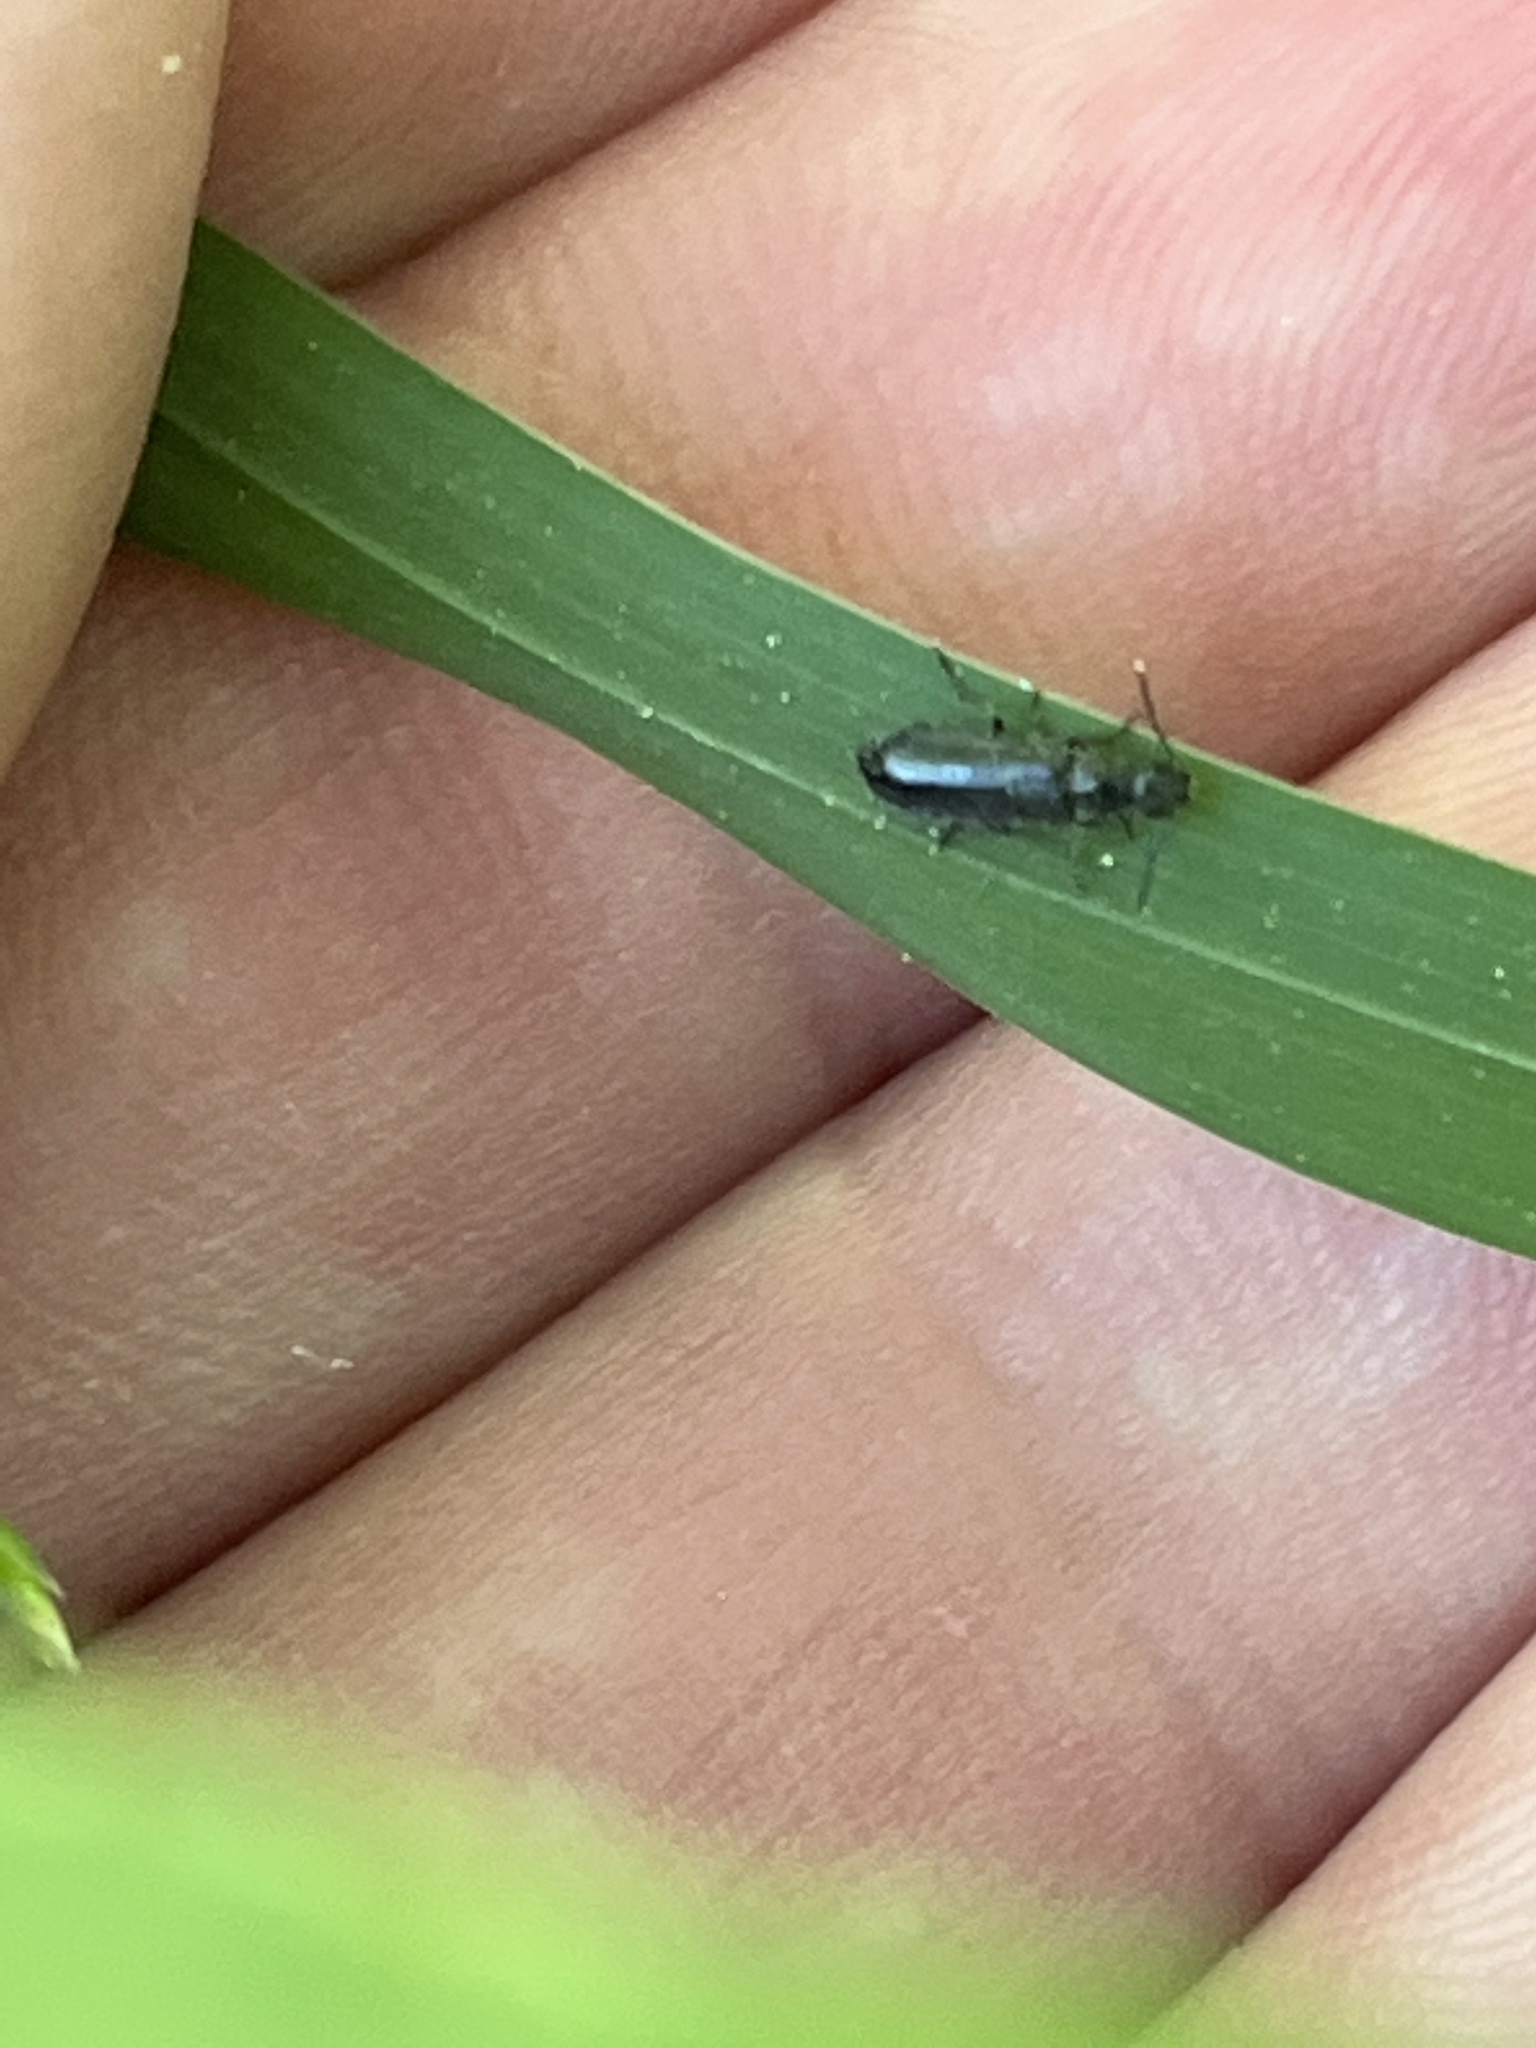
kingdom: Animalia
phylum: Arthropoda
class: Insecta
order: Coleoptera
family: Melyridae
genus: Dasytes
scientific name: Dasytes caeruleus
